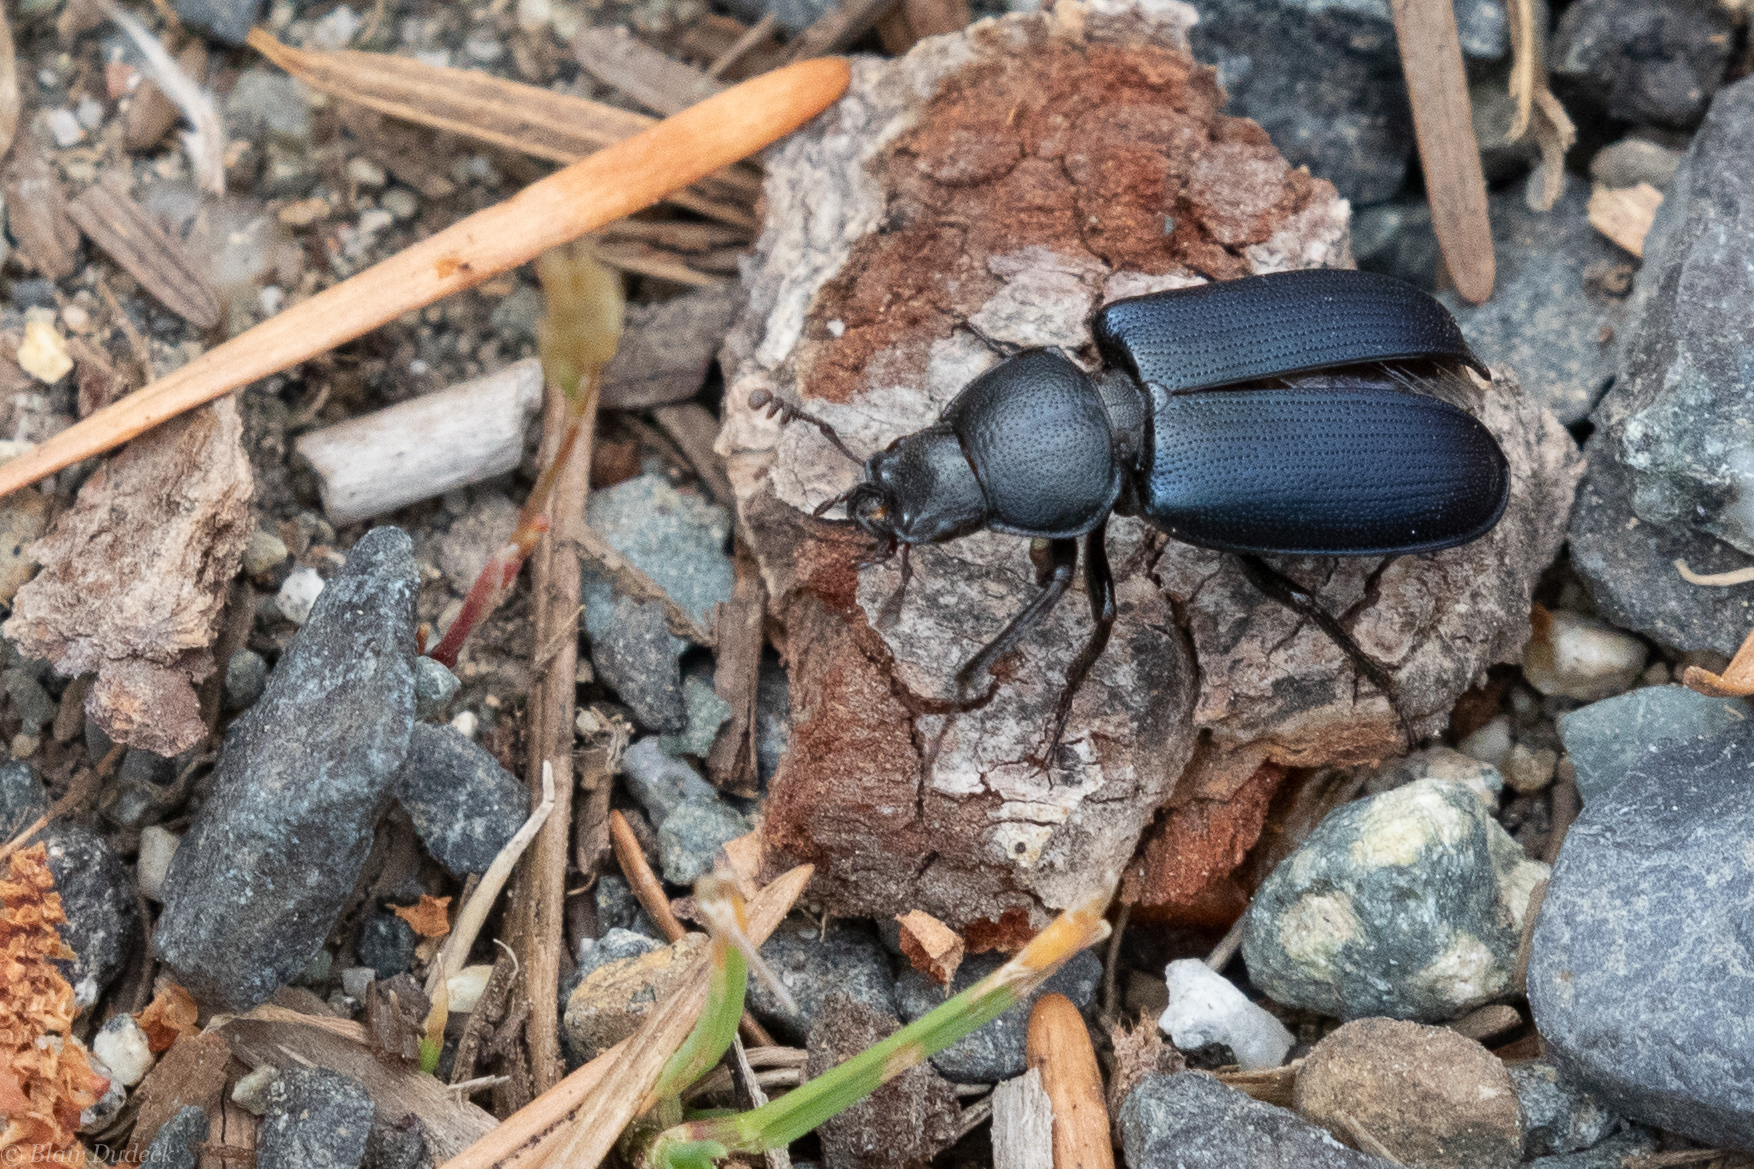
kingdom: Animalia
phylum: Arthropoda
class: Insecta
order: Coleoptera
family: Lucanidae
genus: Platycerus
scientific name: Platycerus oregonensis
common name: Oregon stag beetle
